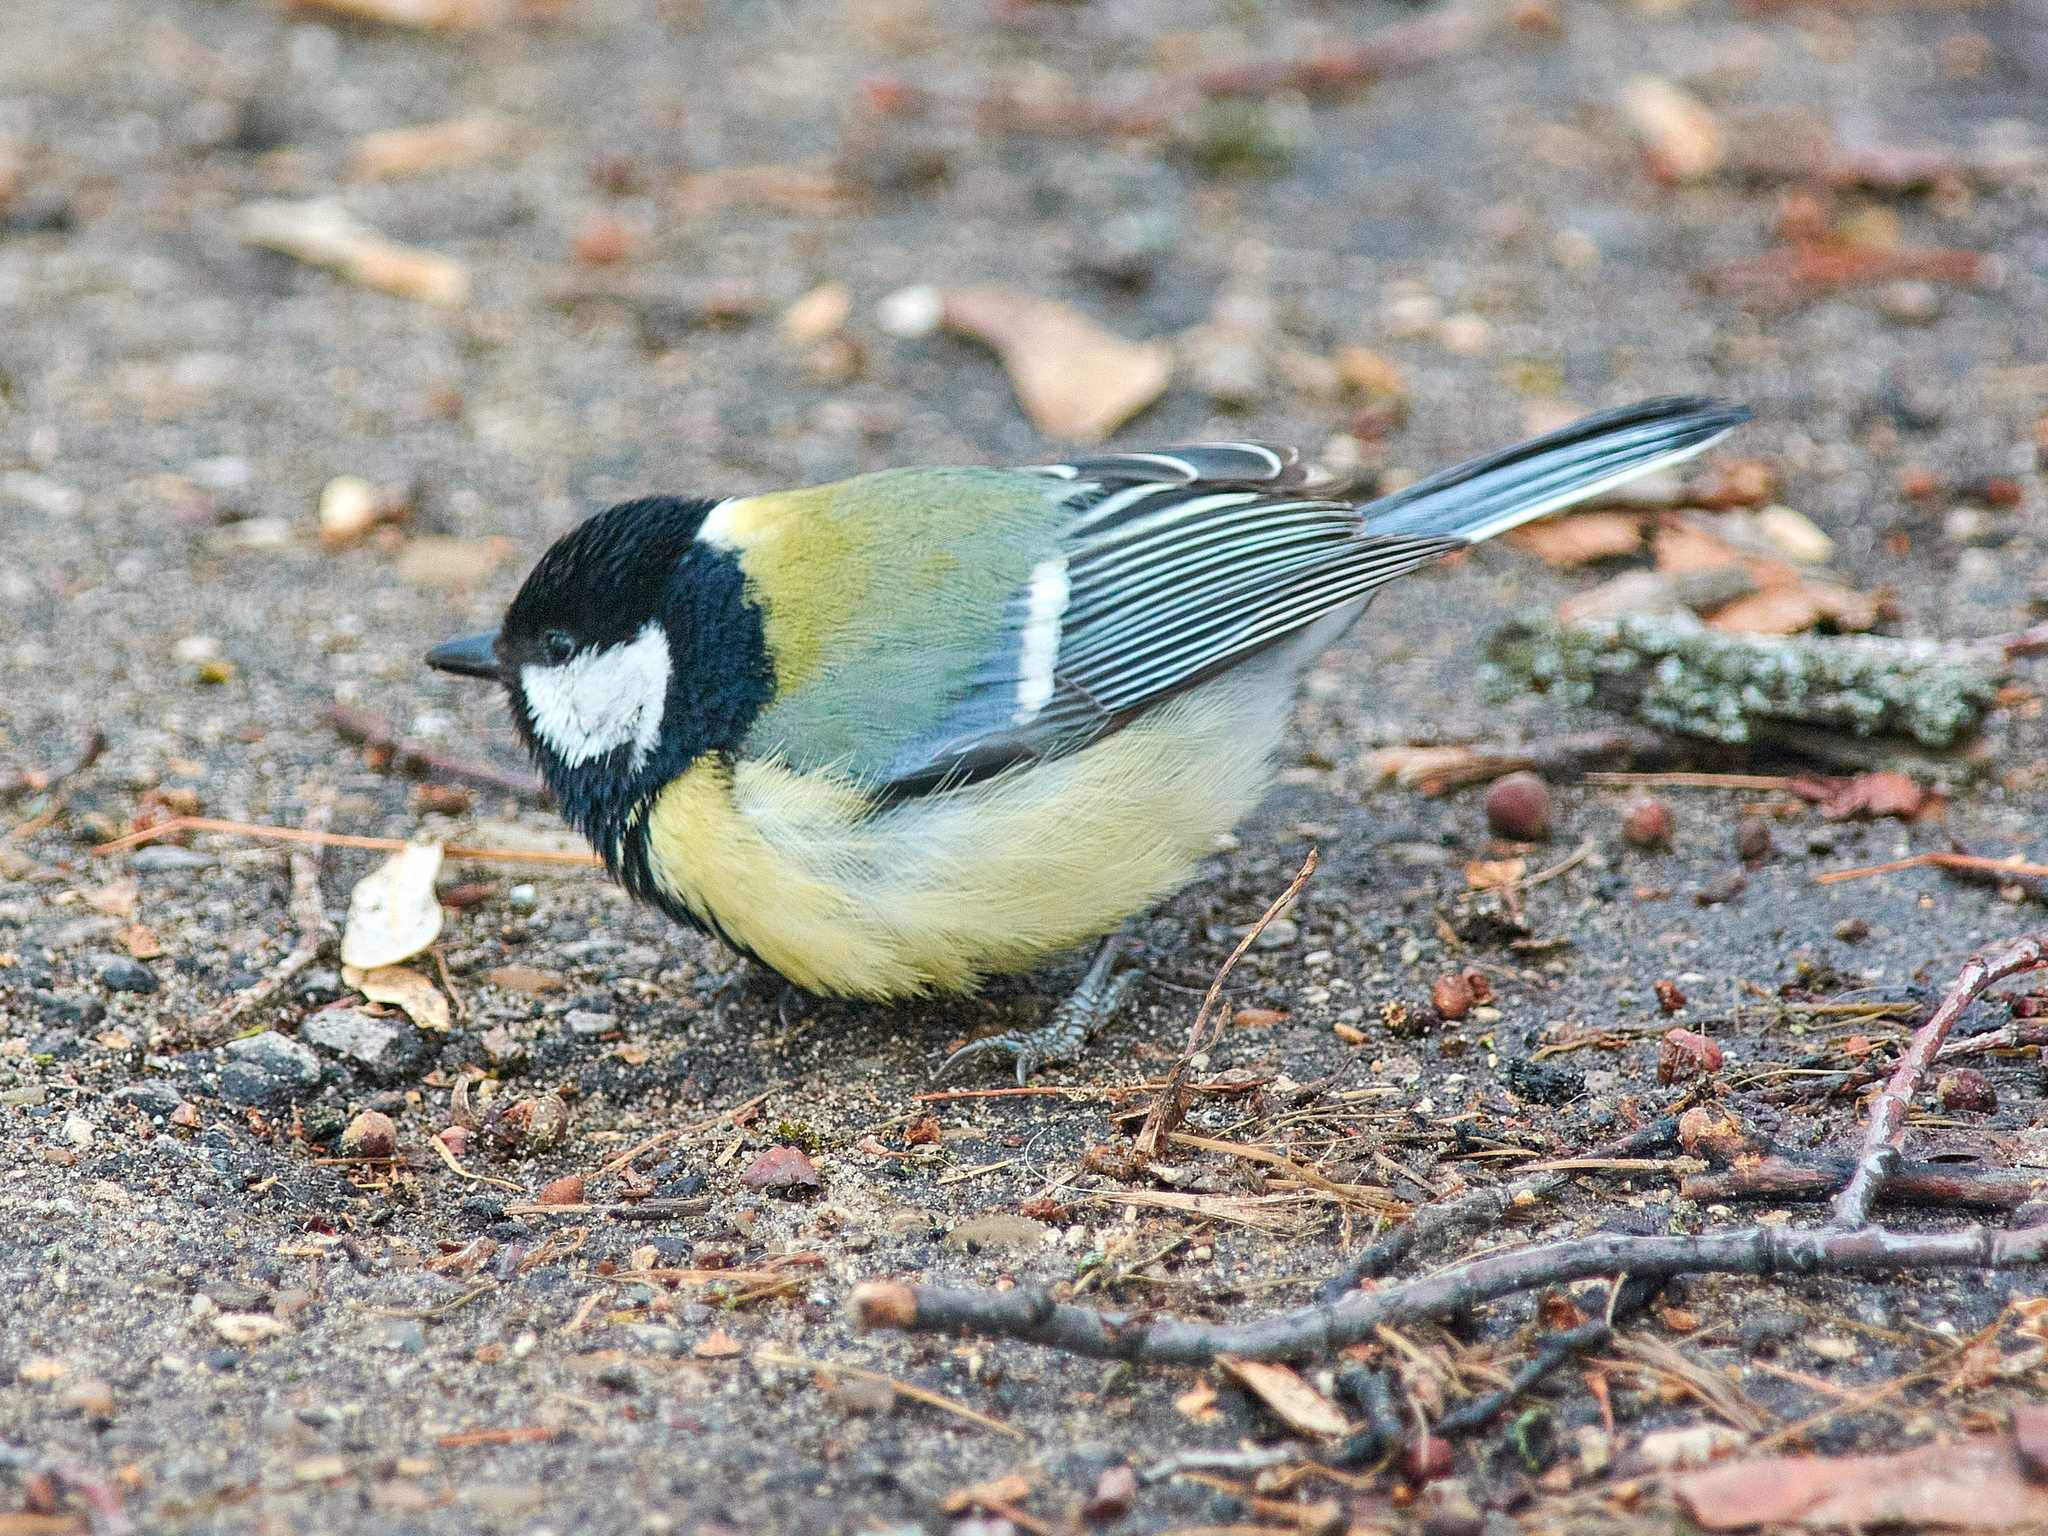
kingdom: Animalia
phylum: Chordata
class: Aves
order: Passeriformes
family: Paridae
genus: Parus
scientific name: Parus major
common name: Great tit
